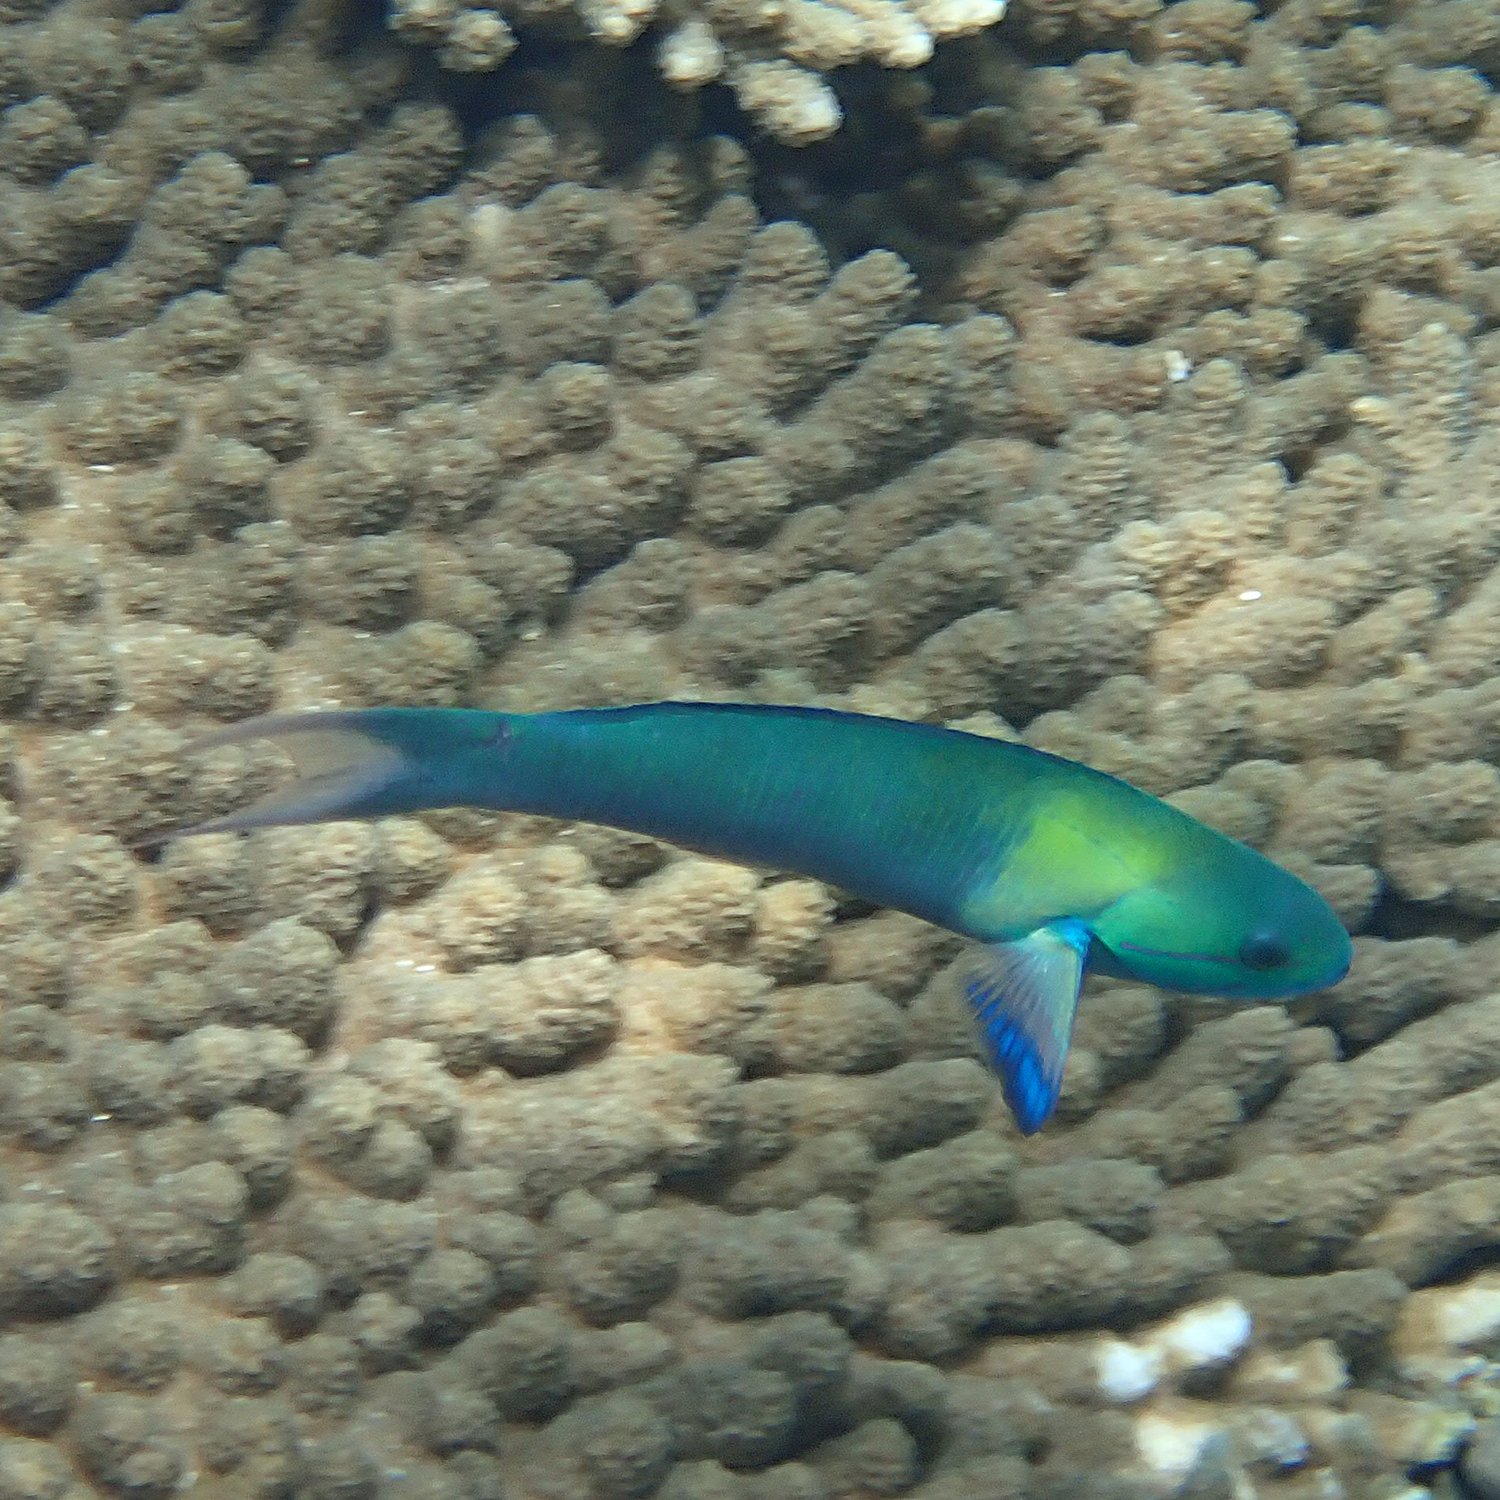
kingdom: Animalia
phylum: Chordata
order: Perciformes
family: Labridae
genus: Thalassoma
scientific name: Thalassoma amblycephalum
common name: Bluehead wrasse
